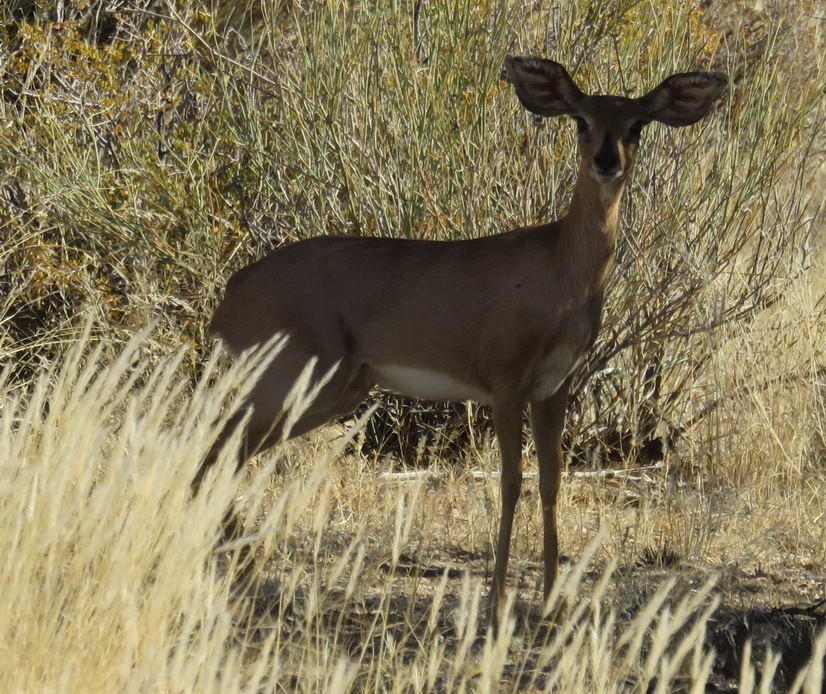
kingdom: Animalia
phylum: Chordata
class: Mammalia
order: Artiodactyla
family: Bovidae
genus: Raphicerus
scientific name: Raphicerus campestris
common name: Steenbok
